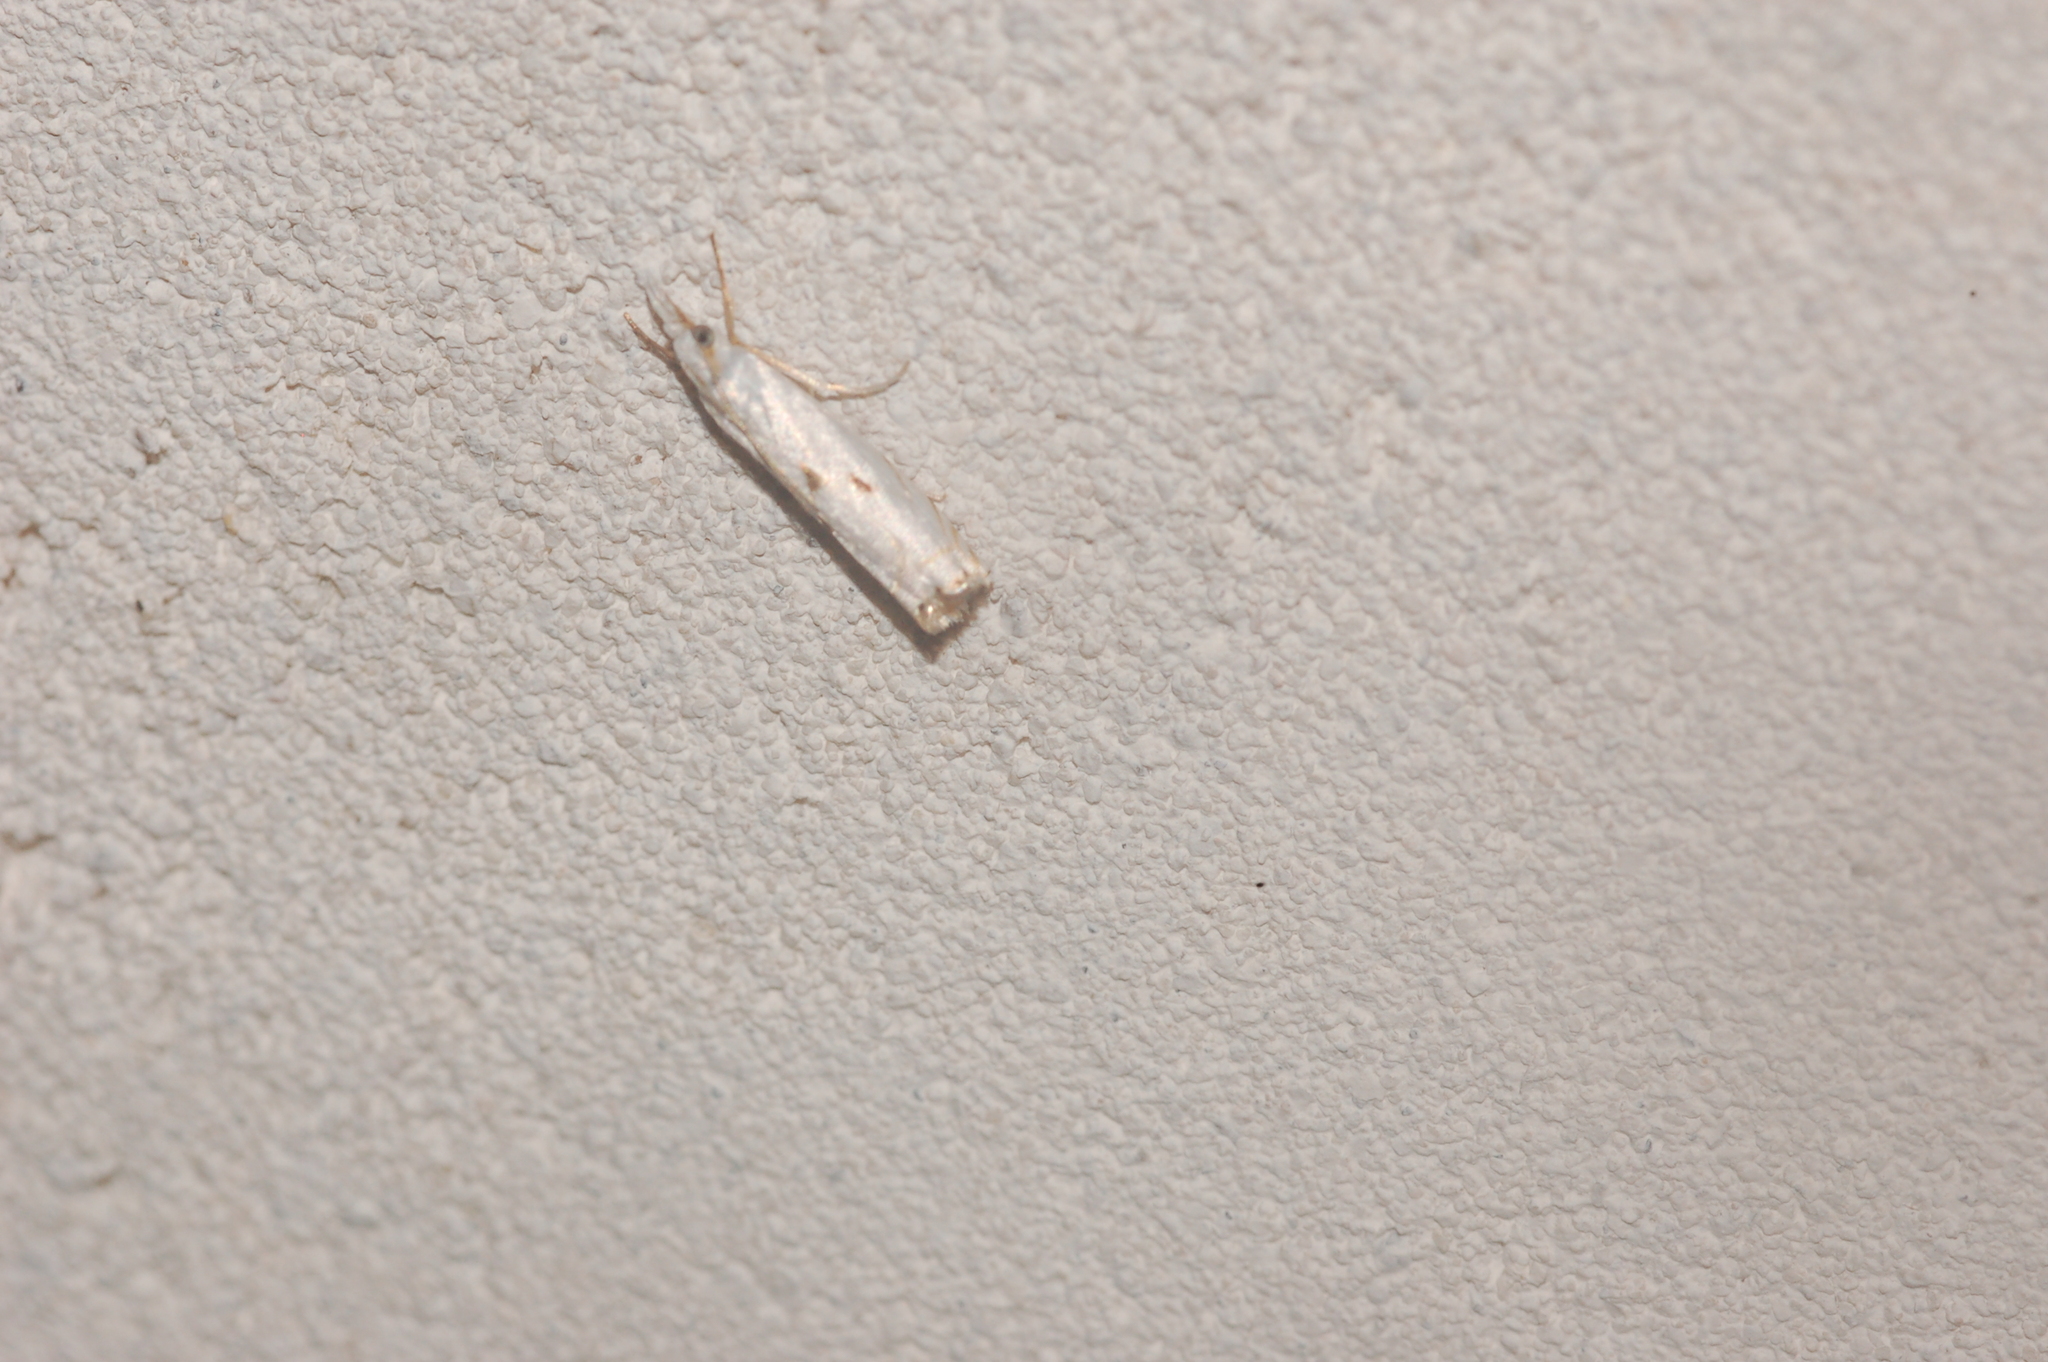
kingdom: Animalia
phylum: Arthropoda
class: Insecta
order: Lepidoptera
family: Crambidae
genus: Microcrambus
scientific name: Microcrambus biguttellus
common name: Gold-stripe grass-veneer moth
